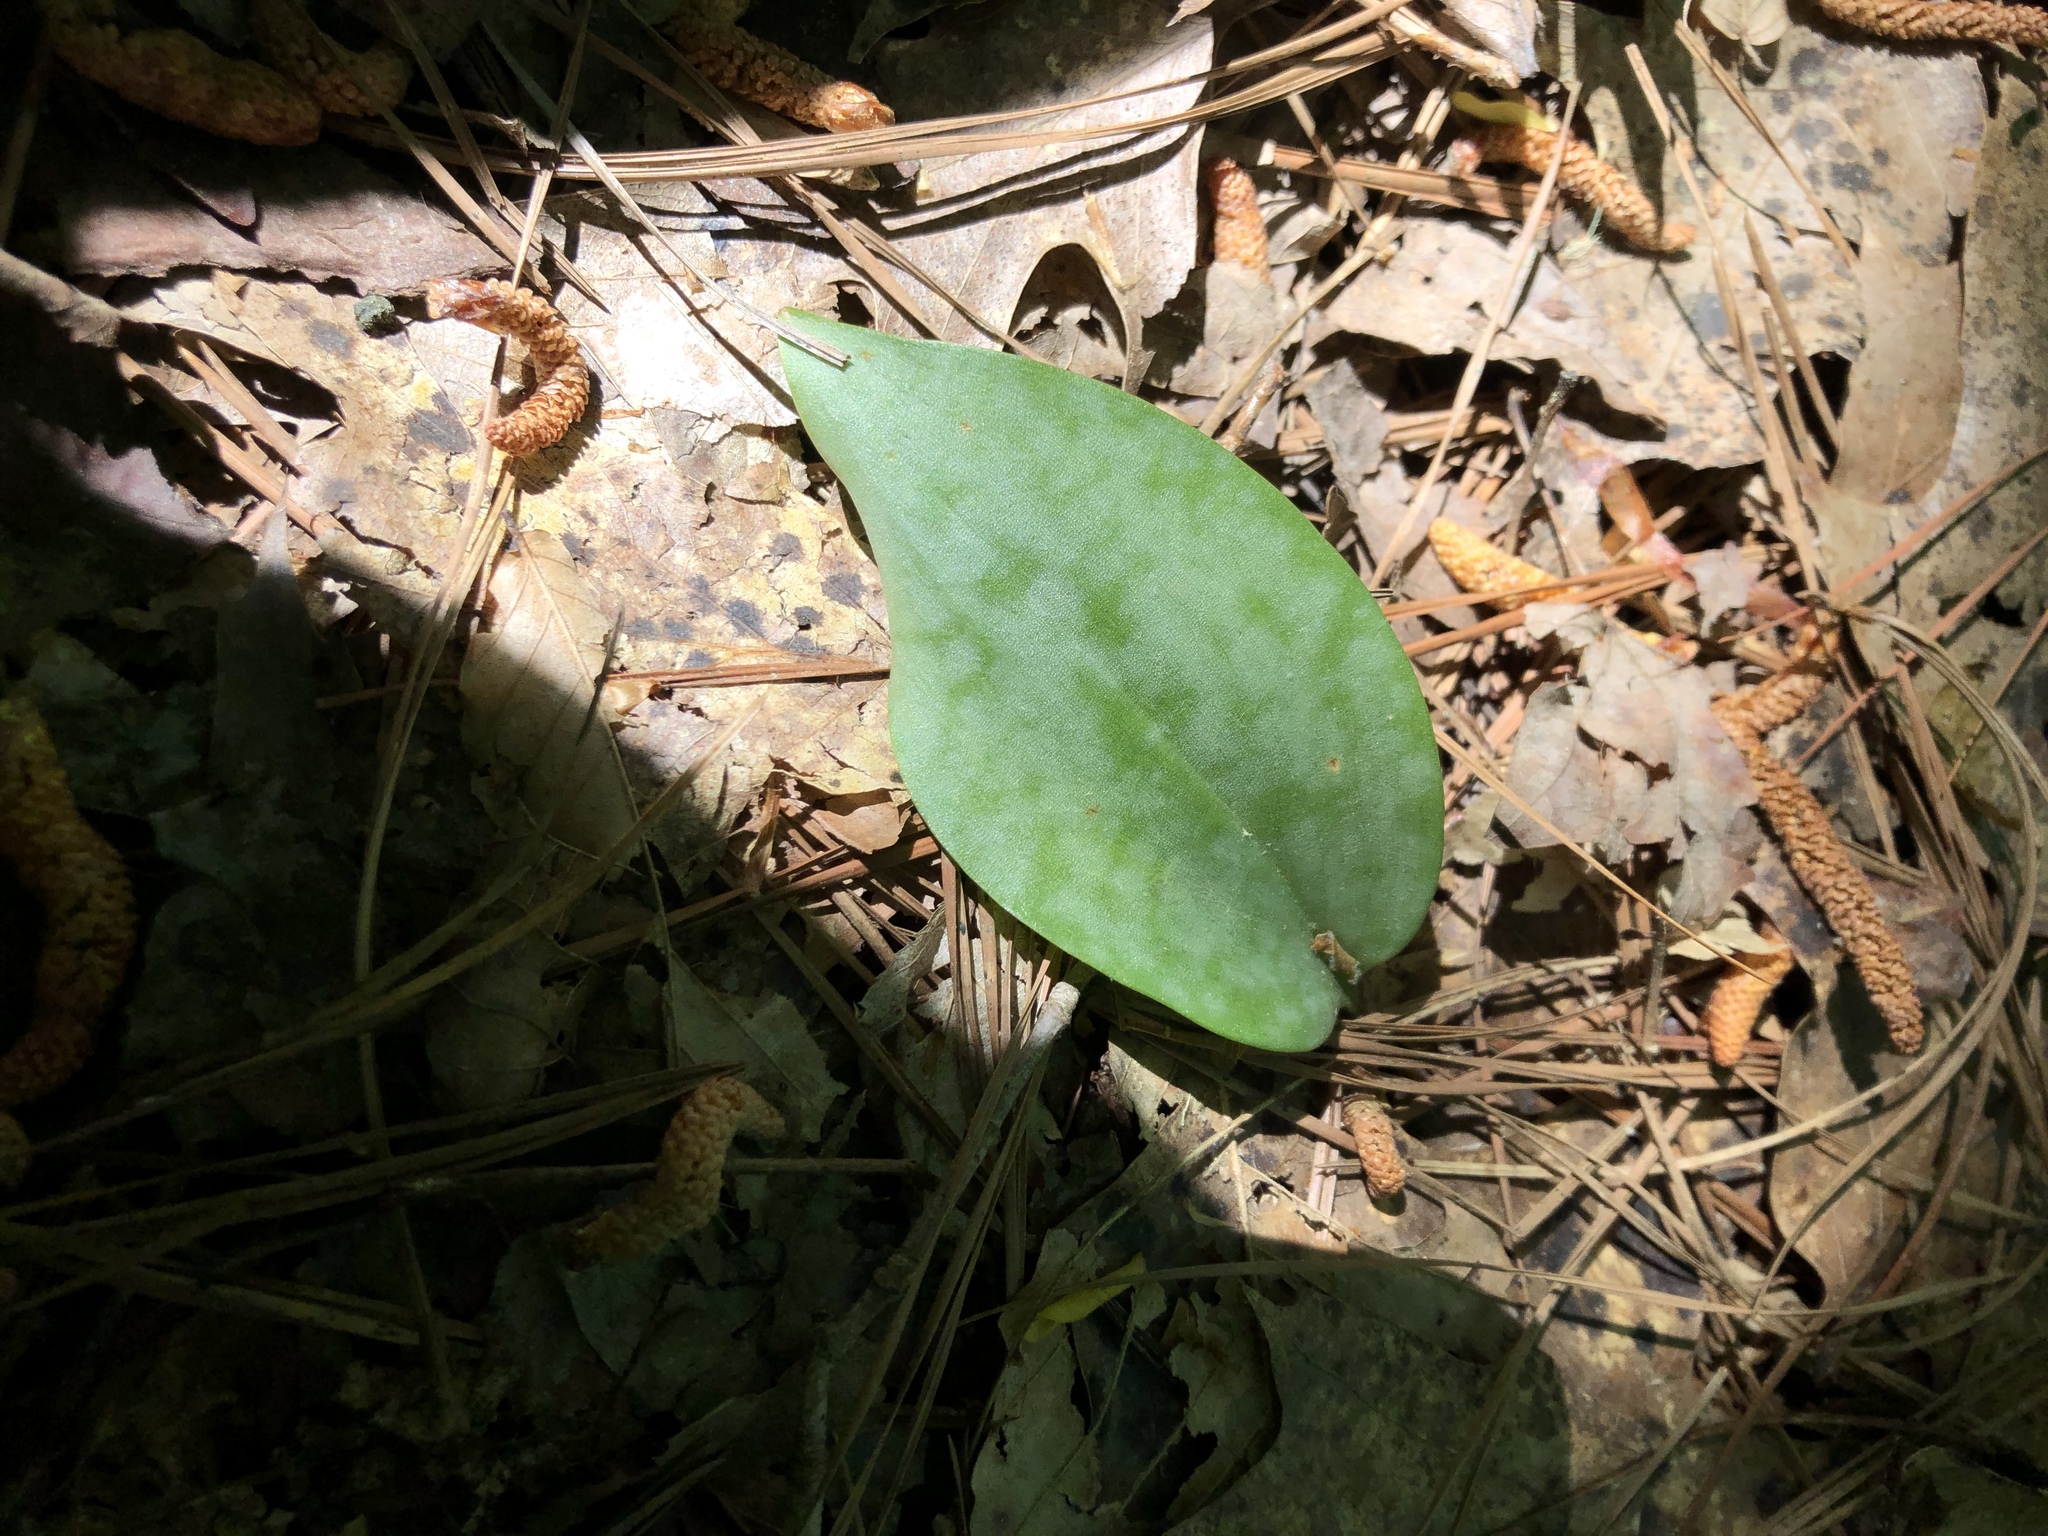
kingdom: Plantae
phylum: Tracheophyta
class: Liliopsida
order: Liliales
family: Liliaceae
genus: Erythronium
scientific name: Erythronium umbilicatum
